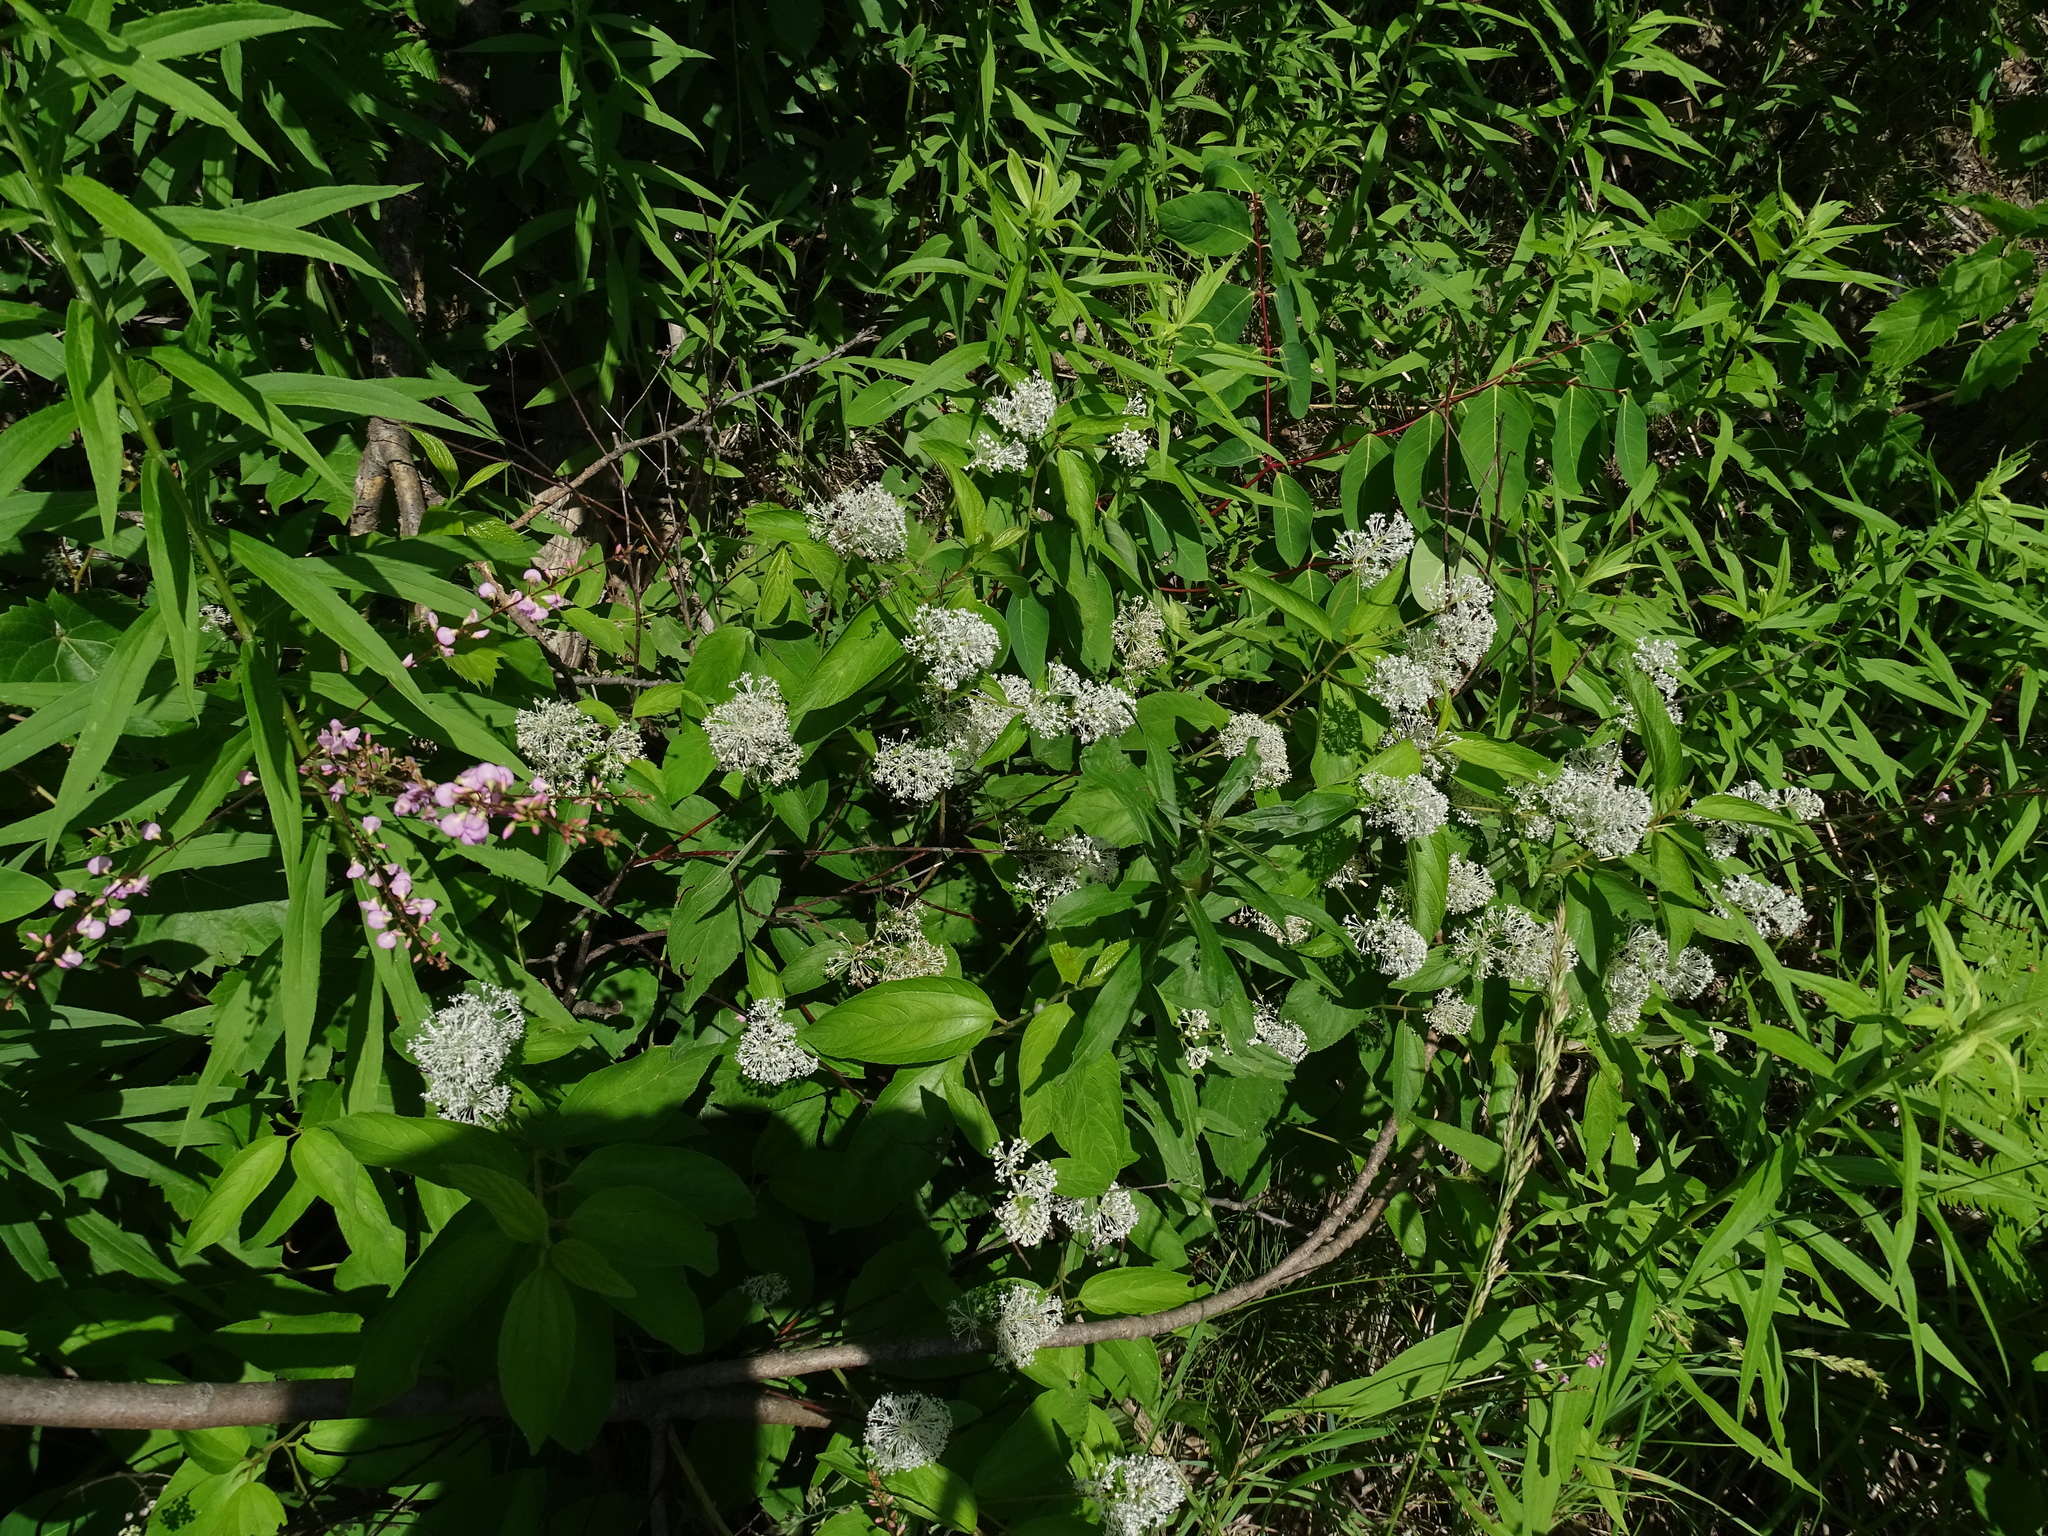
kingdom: Plantae
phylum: Tracheophyta
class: Magnoliopsida
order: Rosales
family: Rhamnaceae
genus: Ceanothus
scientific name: Ceanothus americanus
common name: Redroot
